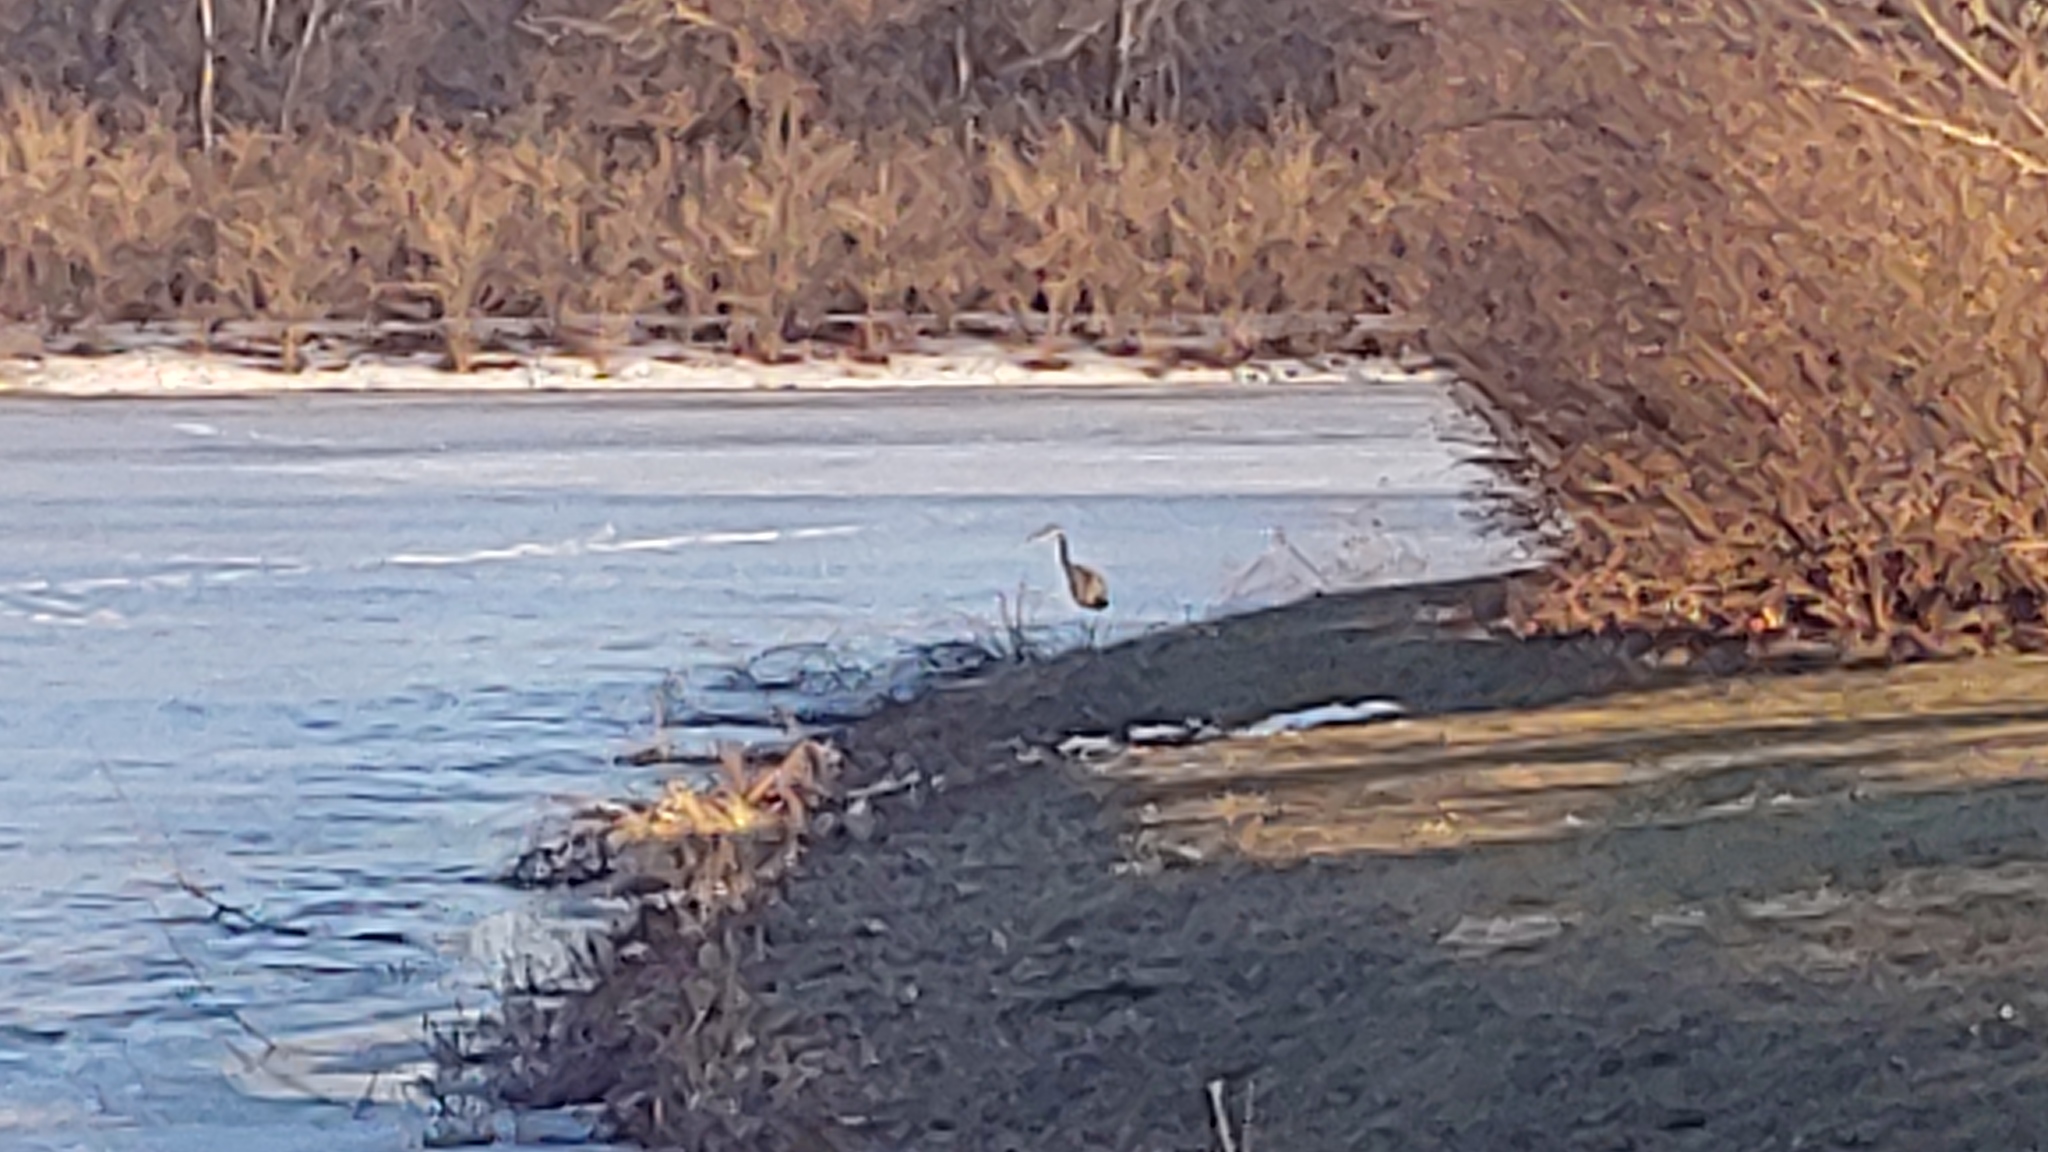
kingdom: Animalia
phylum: Chordata
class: Aves
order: Pelecaniformes
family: Ardeidae
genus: Ardea
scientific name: Ardea herodias
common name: Great blue heron
